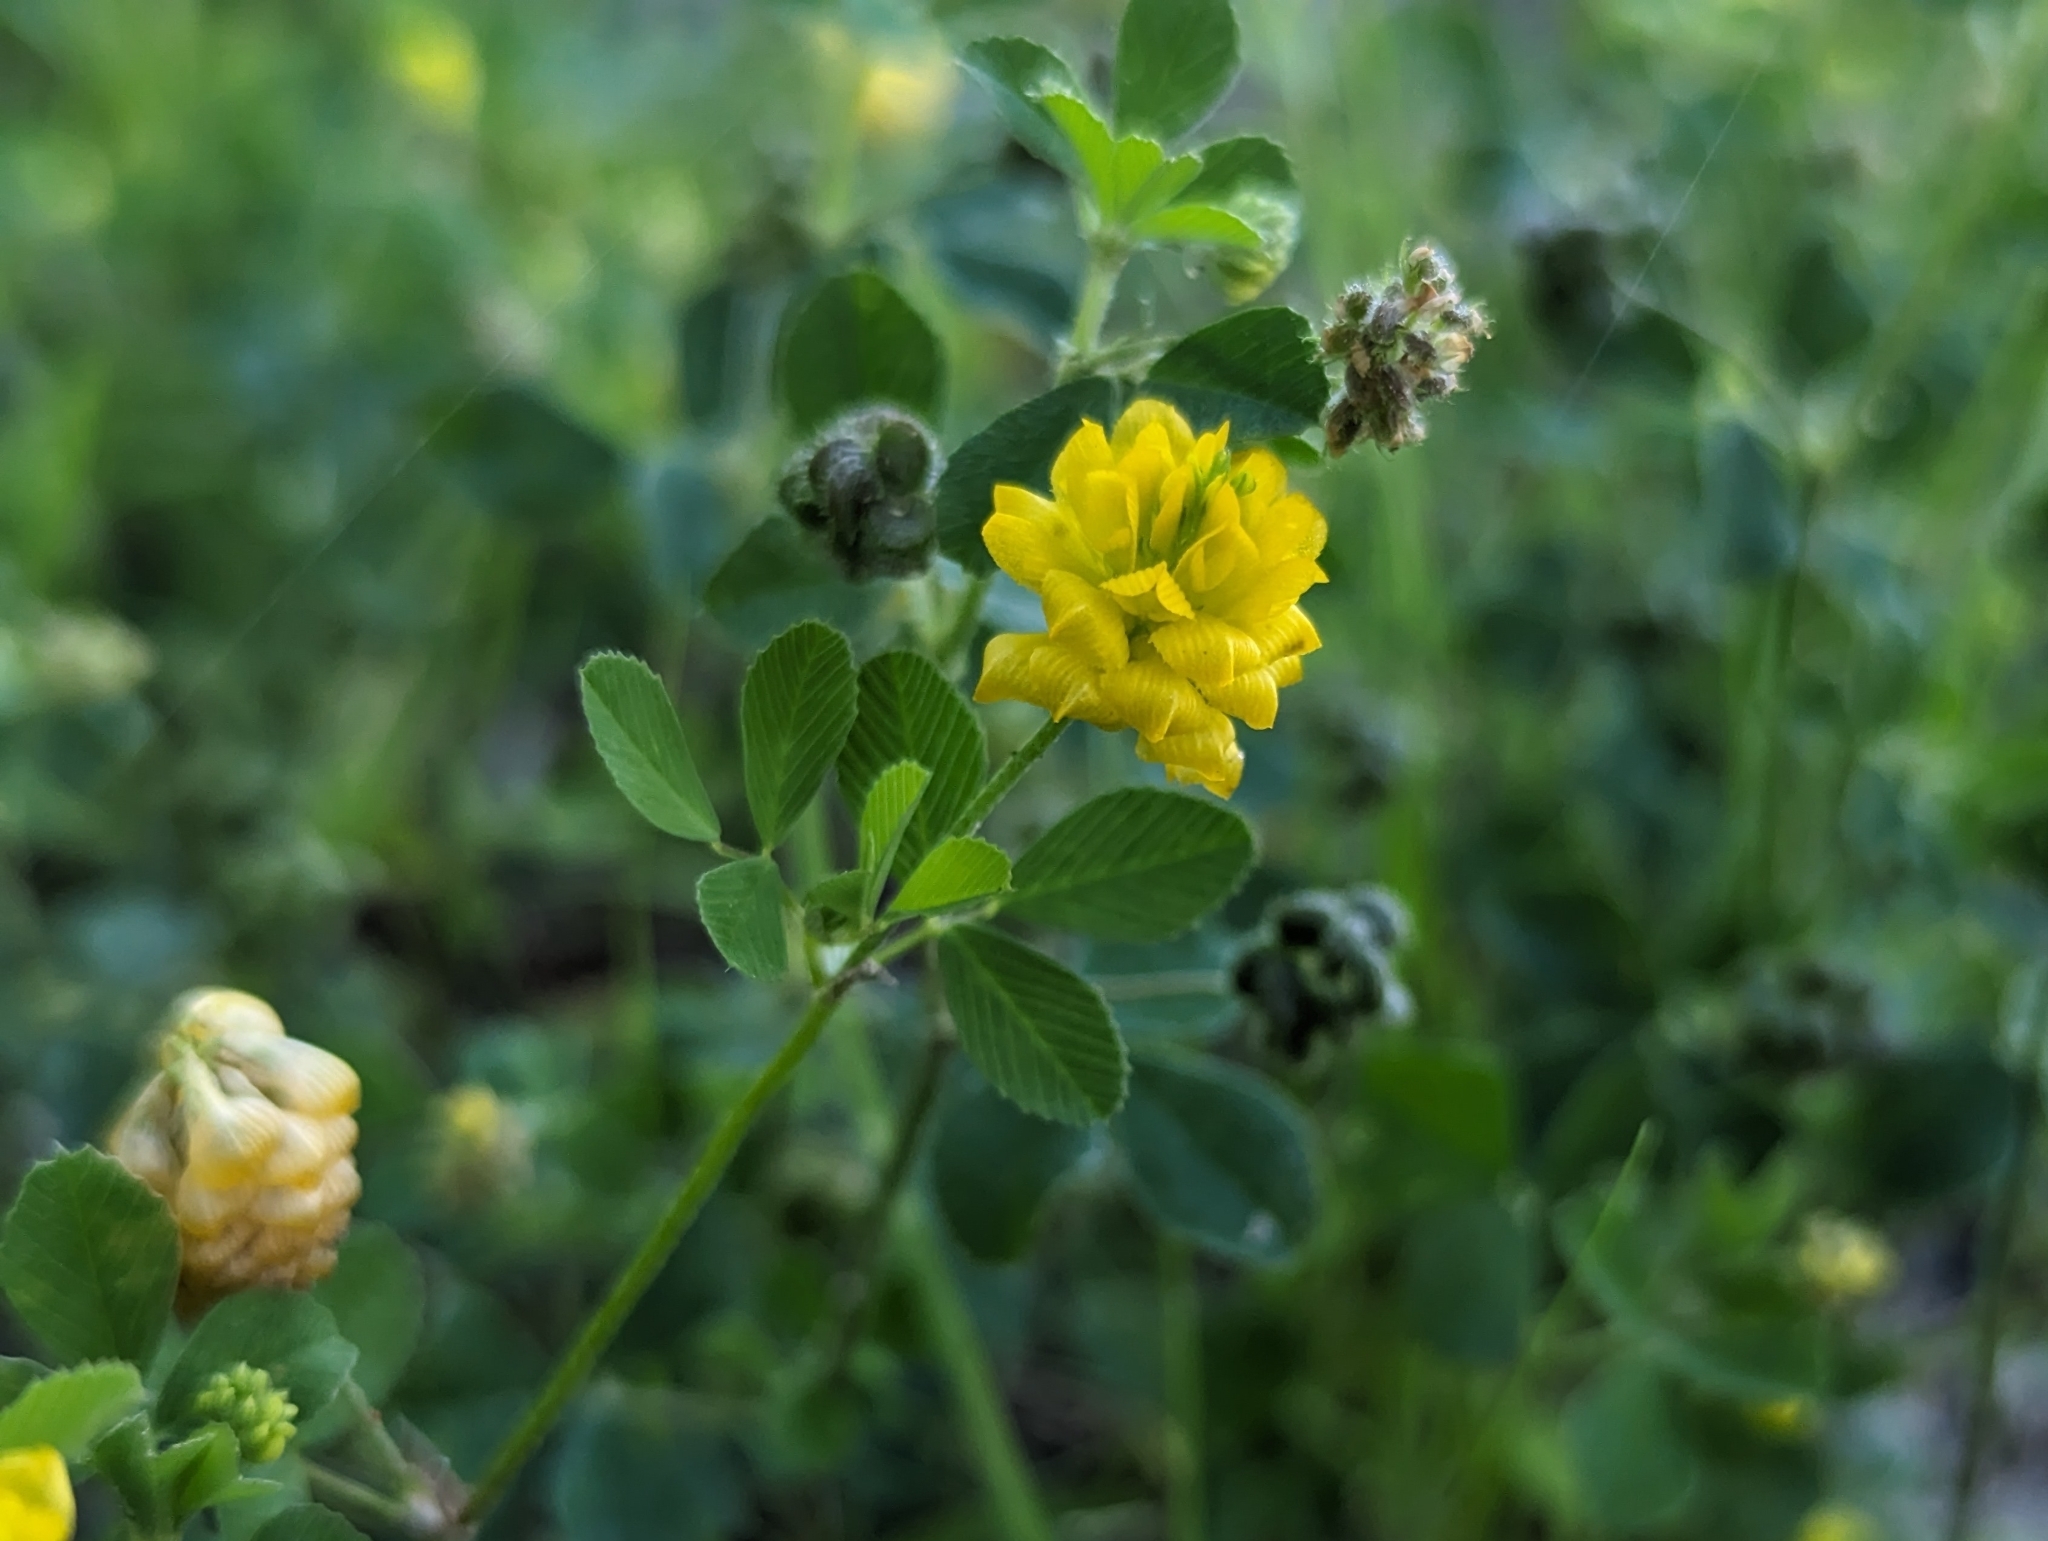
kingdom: Plantae
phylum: Tracheophyta
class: Magnoliopsida
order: Fabales
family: Fabaceae
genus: Trifolium
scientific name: Trifolium campestre
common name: Field clover
